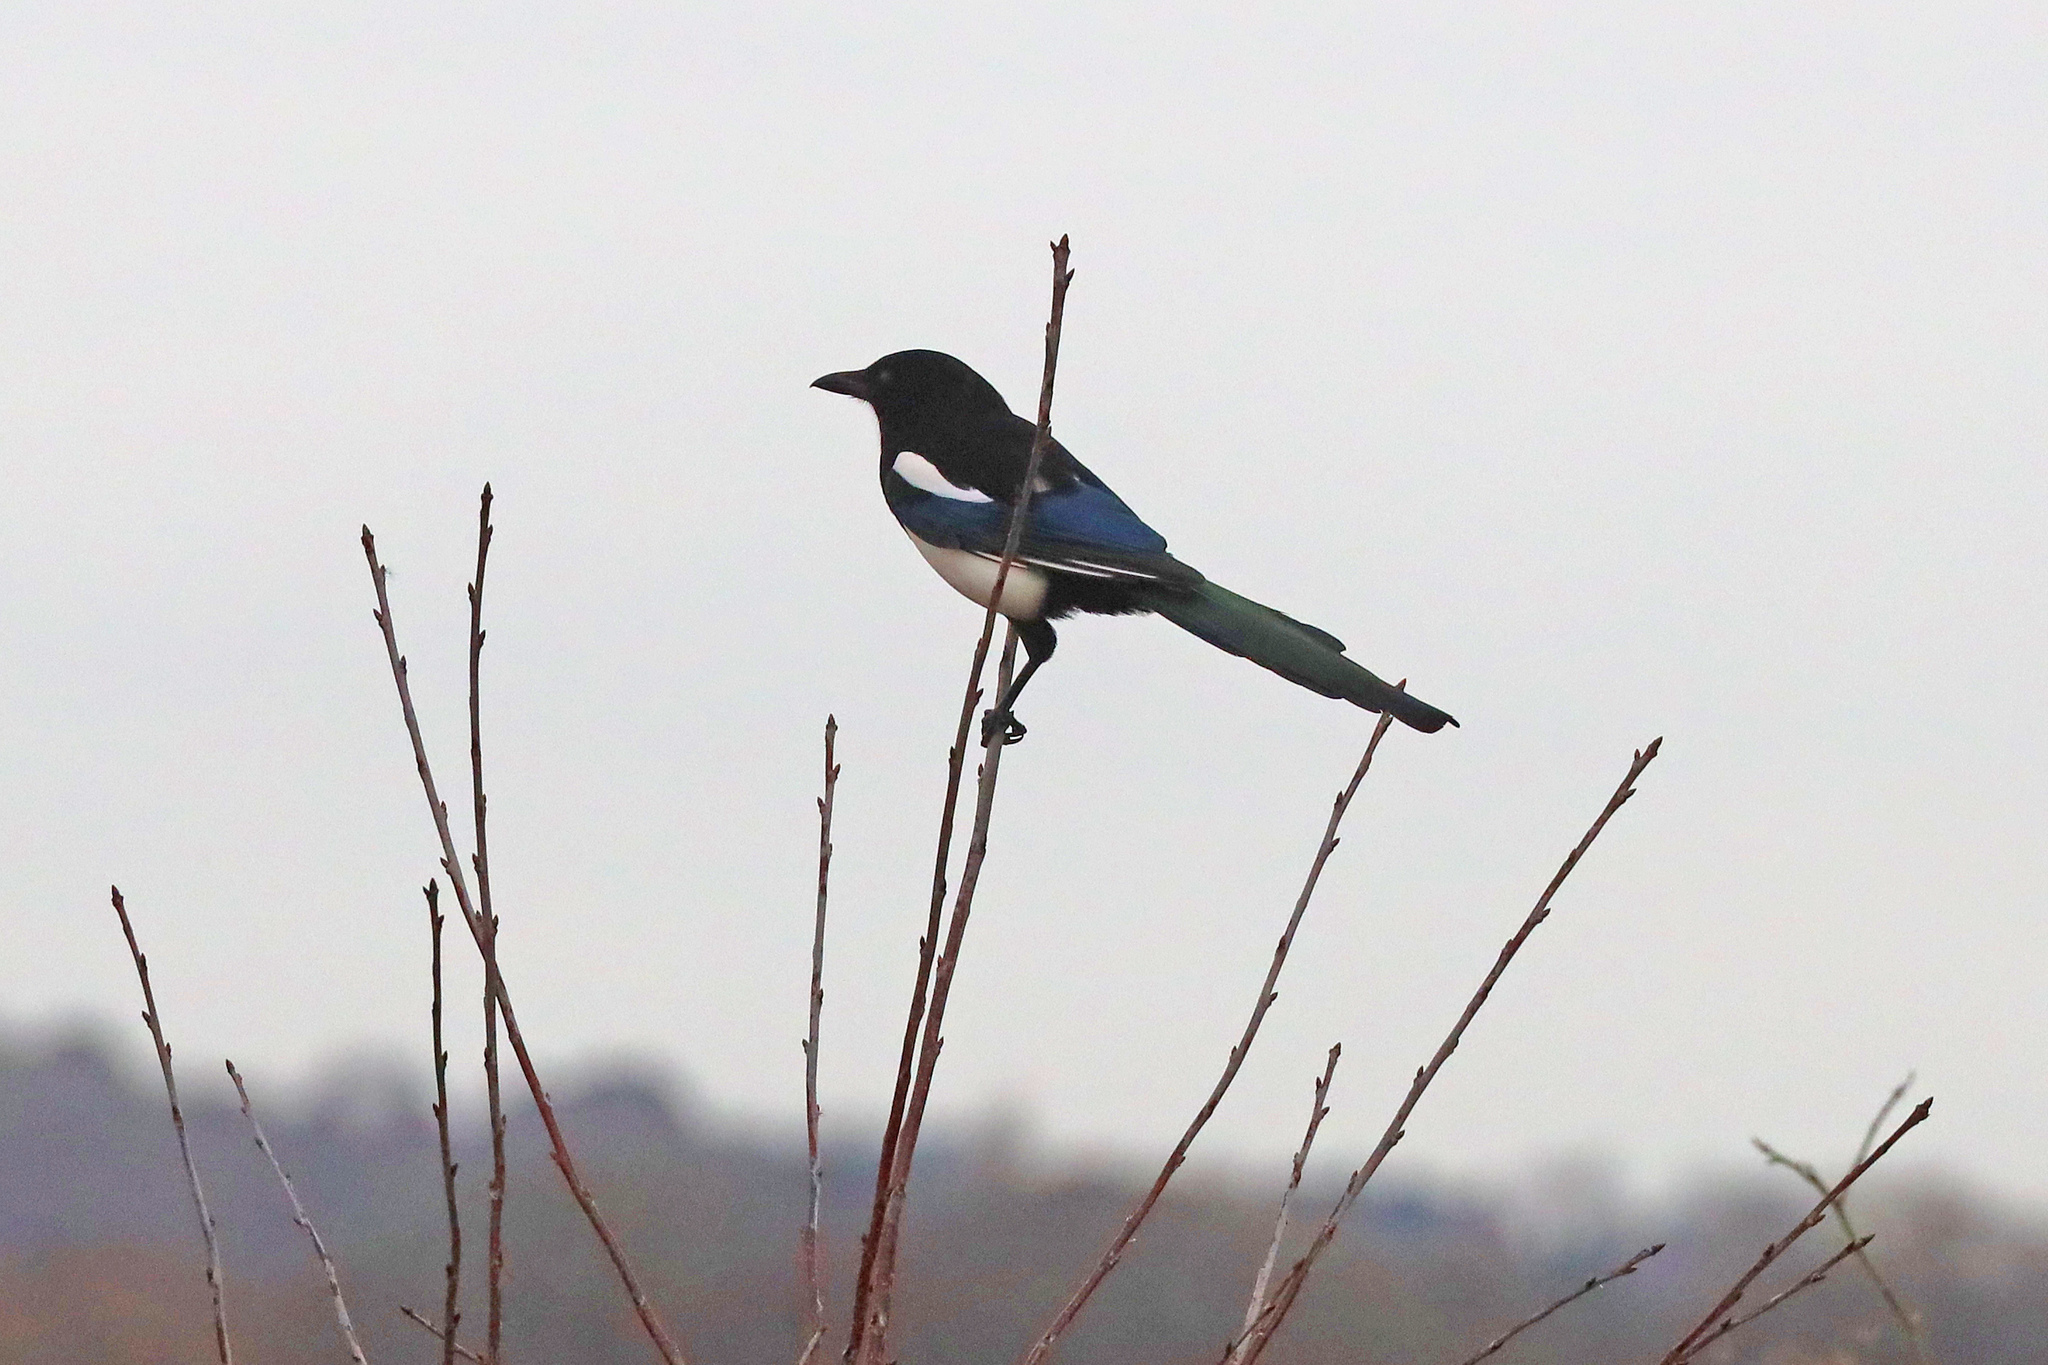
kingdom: Animalia
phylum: Chordata
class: Aves
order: Passeriformes
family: Corvidae
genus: Pica
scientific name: Pica pica
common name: Eurasian magpie
